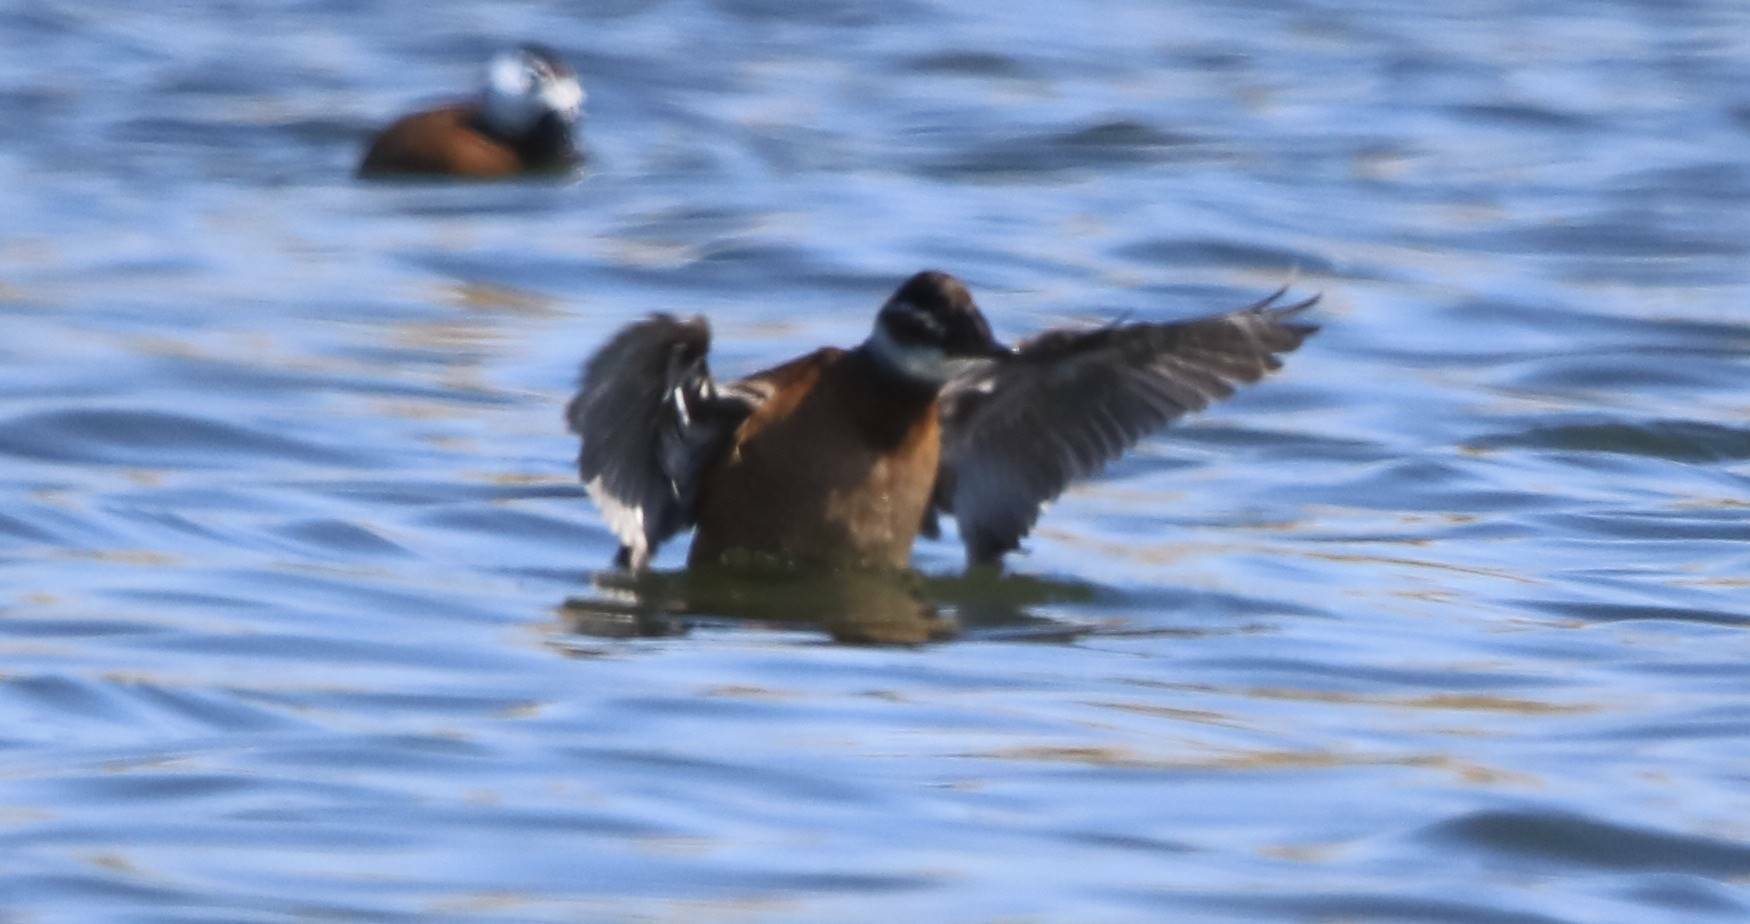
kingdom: Animalia
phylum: Chordata
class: Aves
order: Anseriformes
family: Anatidae
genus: Oxyura
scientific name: Oxyura leucocephala
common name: White-headed duck
